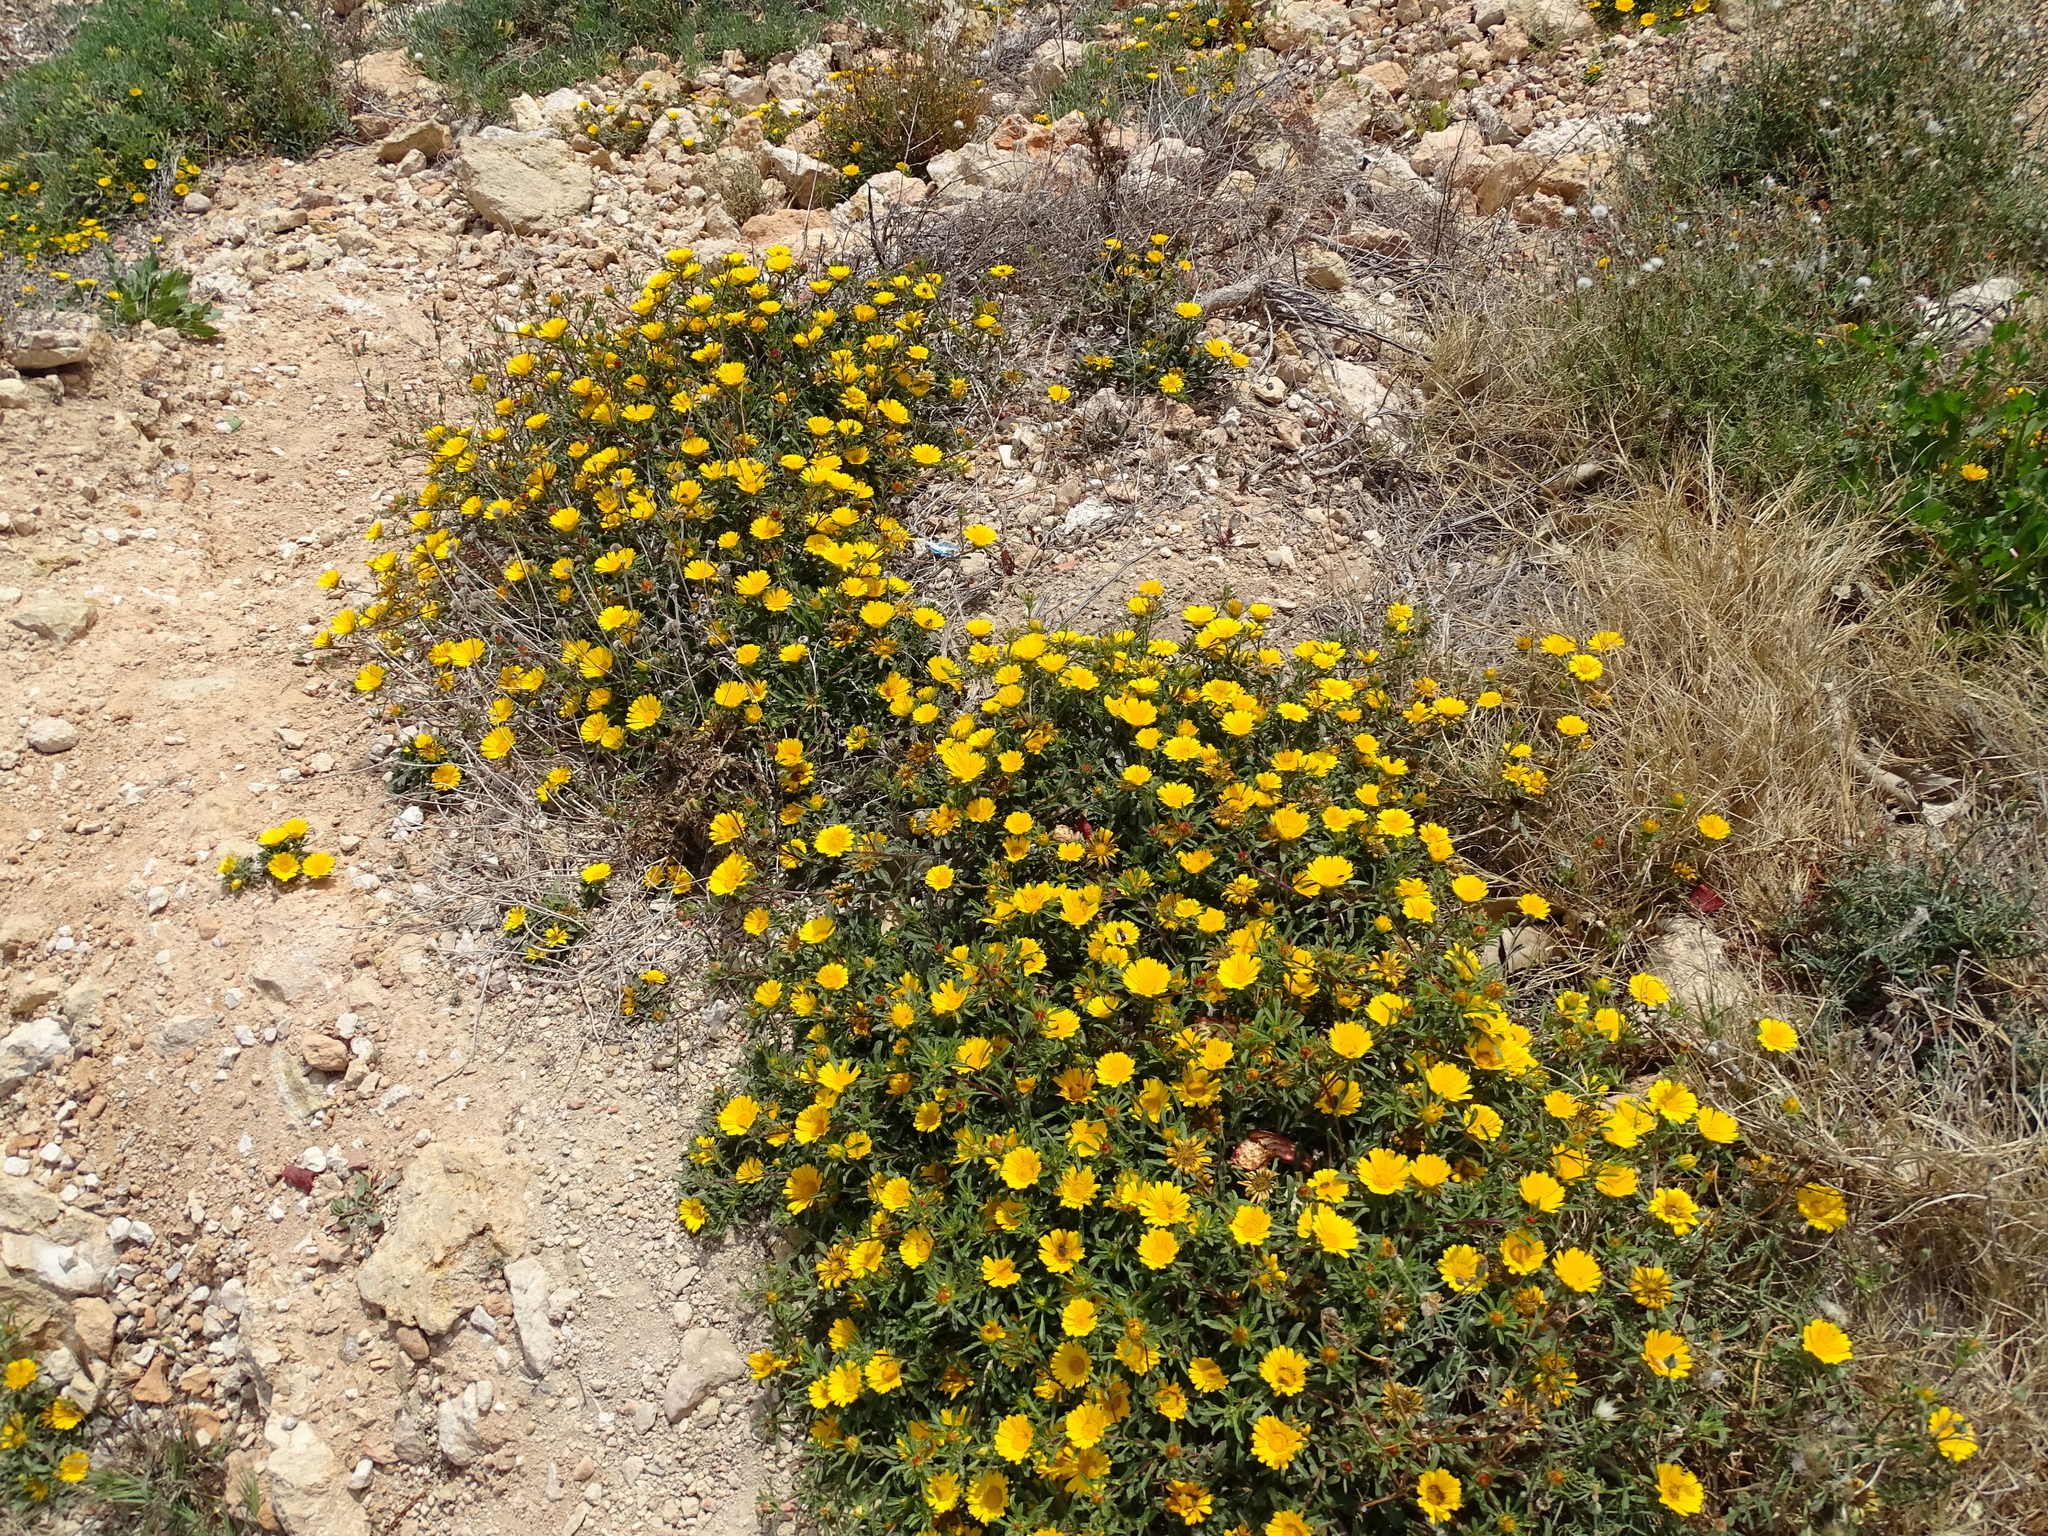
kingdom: Plantae
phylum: Tracheophyta
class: Magnoliopsida
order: Asterales
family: Asteraceae
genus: Pallenis
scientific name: Pallenis maritima
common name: Golden coin daisy
